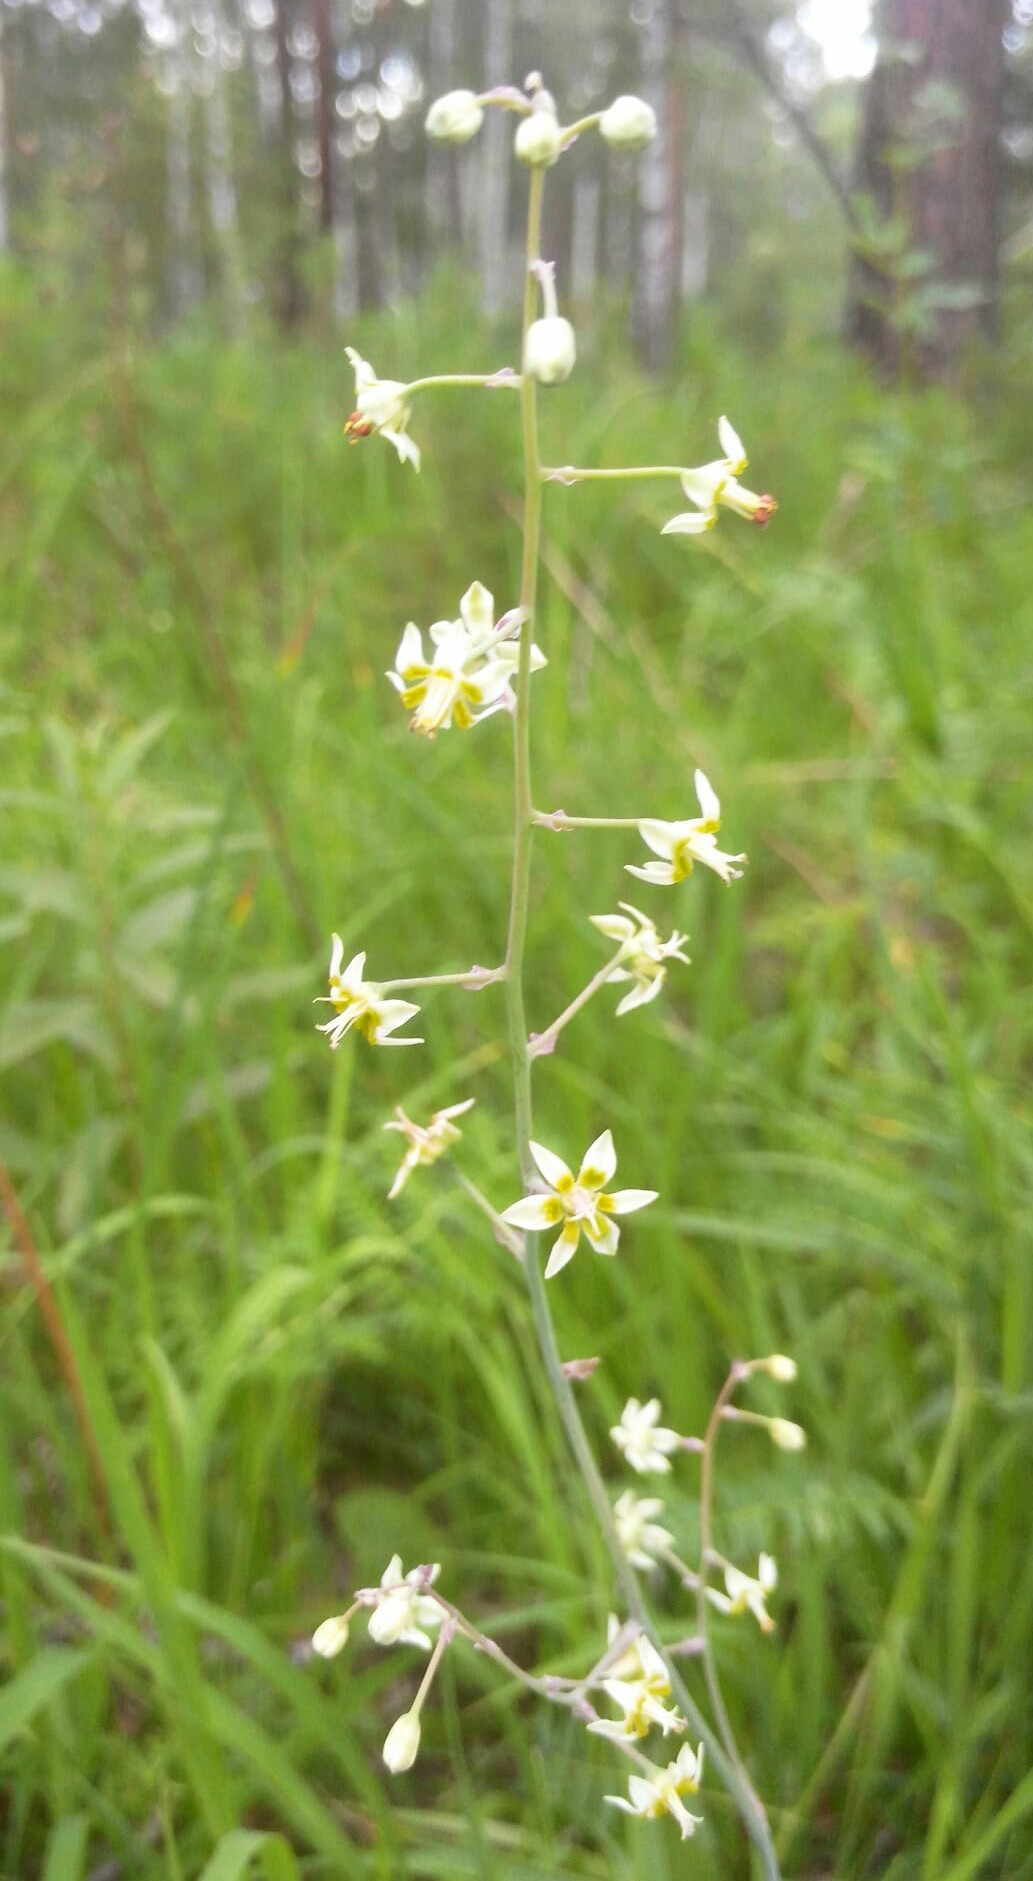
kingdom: Plantae
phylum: Tracheophyta
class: Liliopsida
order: Liliales
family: Melanthiaceae
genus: Anticlea
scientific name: Anticlea sibirica
